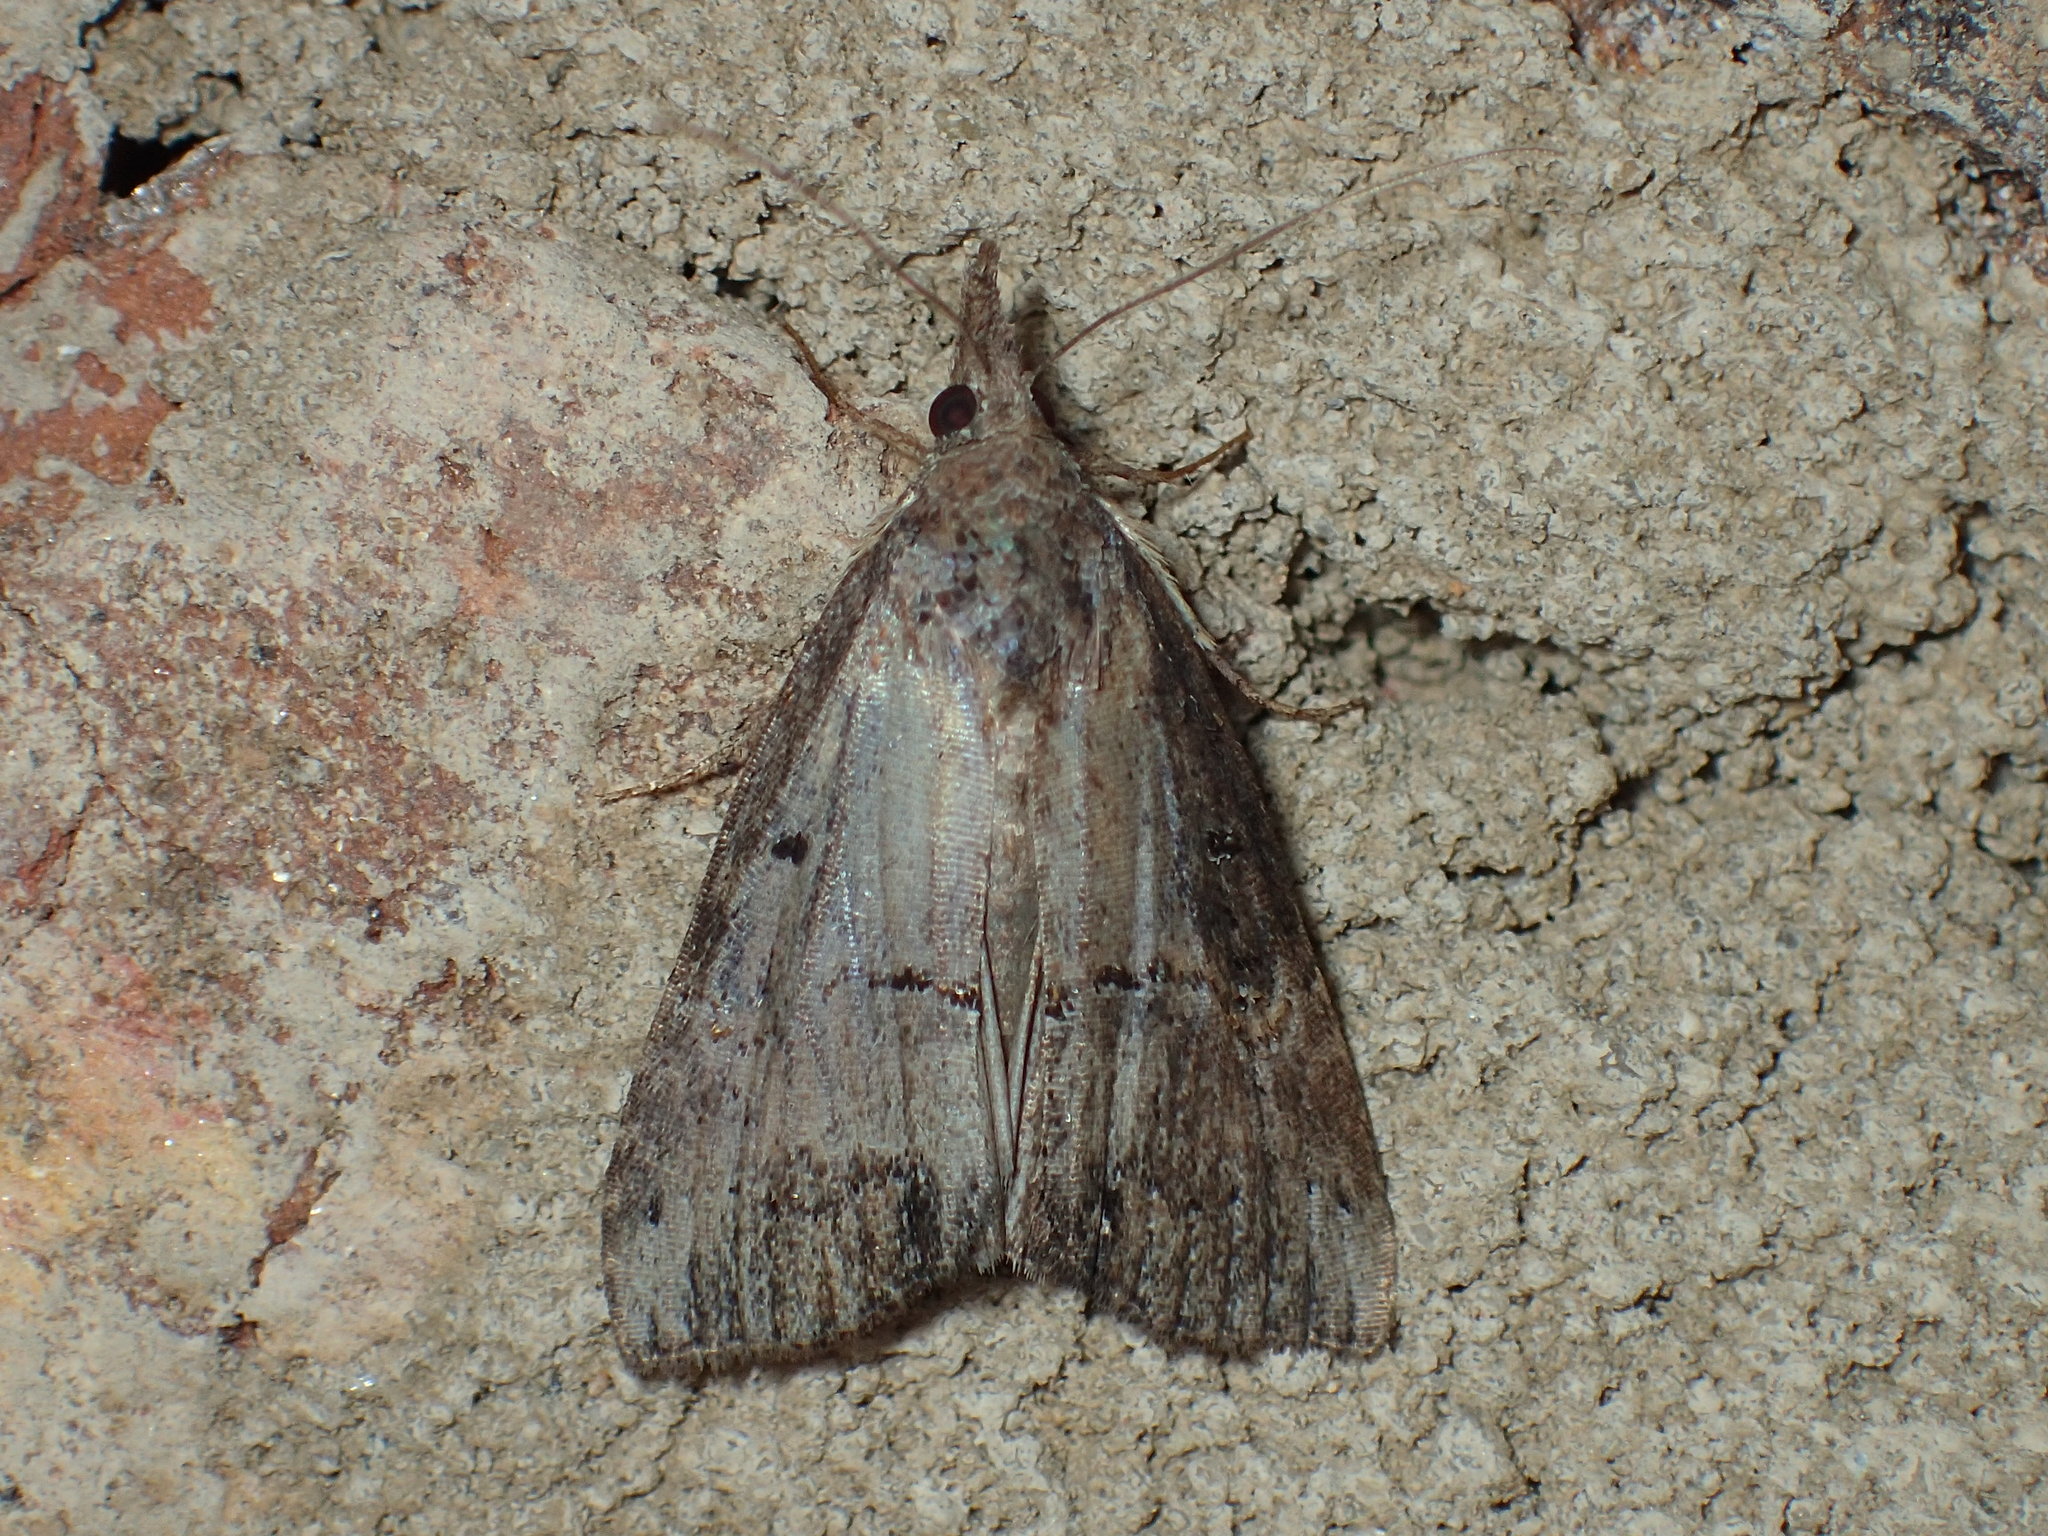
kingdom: Animalia
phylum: Arthropoda
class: Insecta
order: Lepidoptera
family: Erebidae
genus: Hypena
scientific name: Hypena scabra
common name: Green cloverworm
